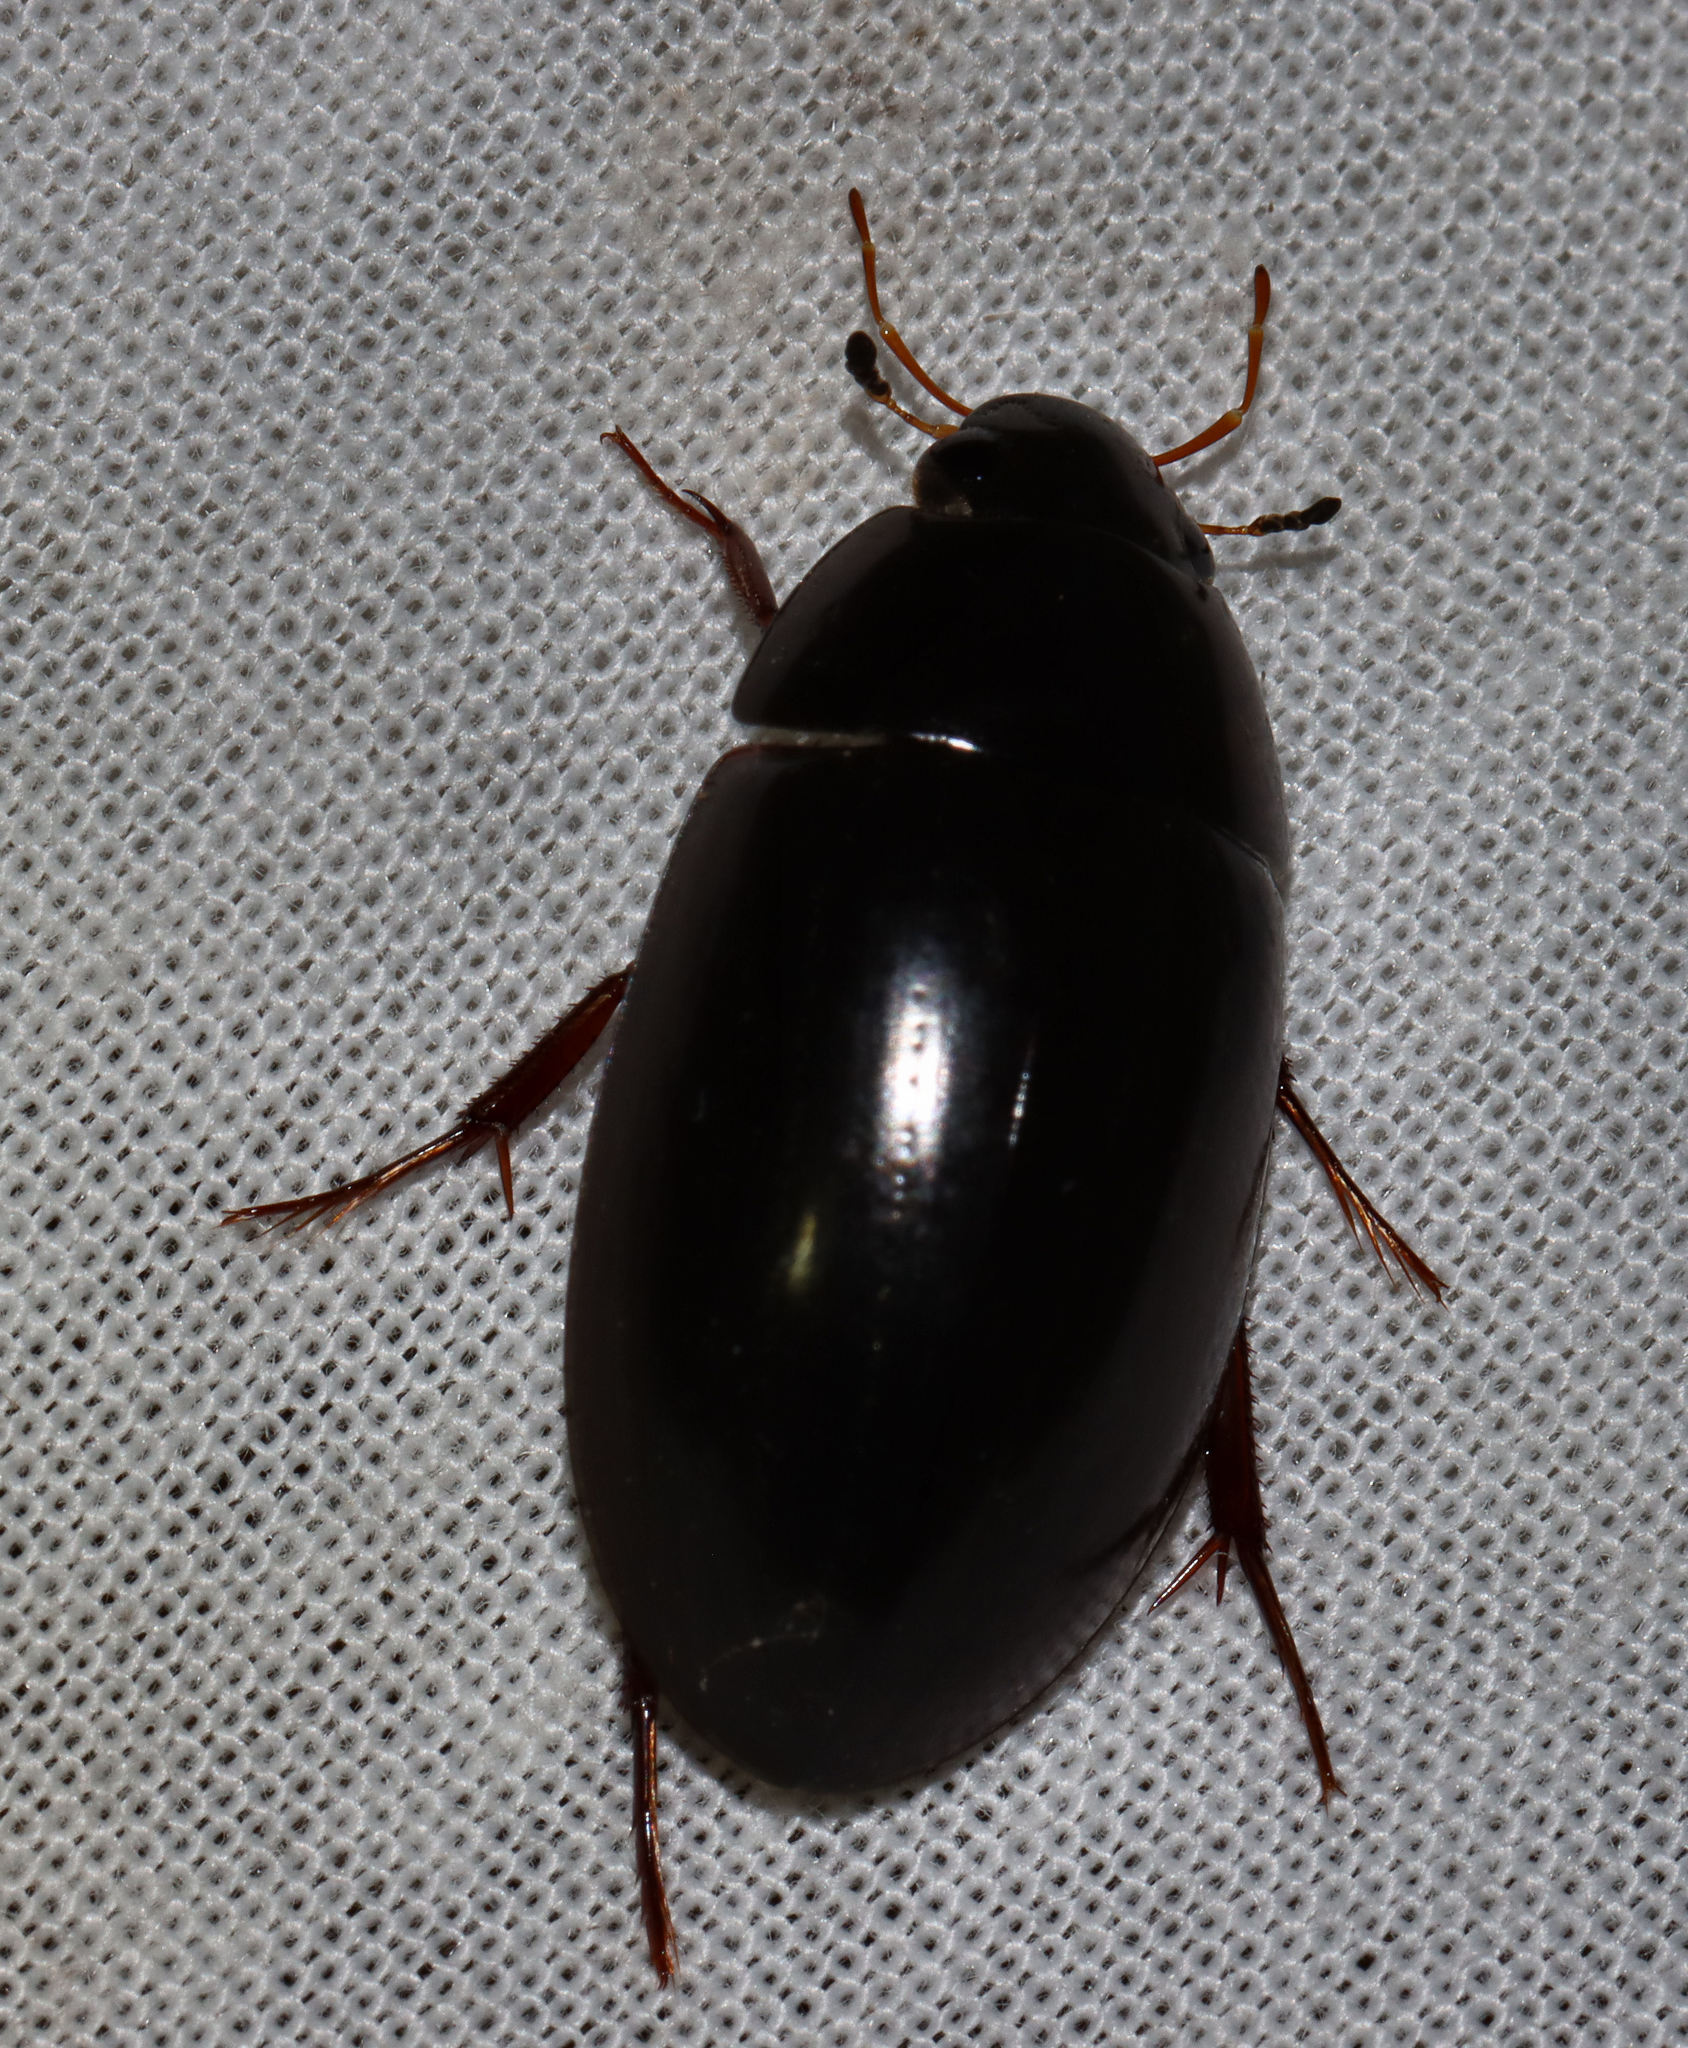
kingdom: Animalia
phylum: Arthropoda
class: Insecta
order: Coleoptera
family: Hydrophilidae
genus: Hydrochara
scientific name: Hydrochara soror
